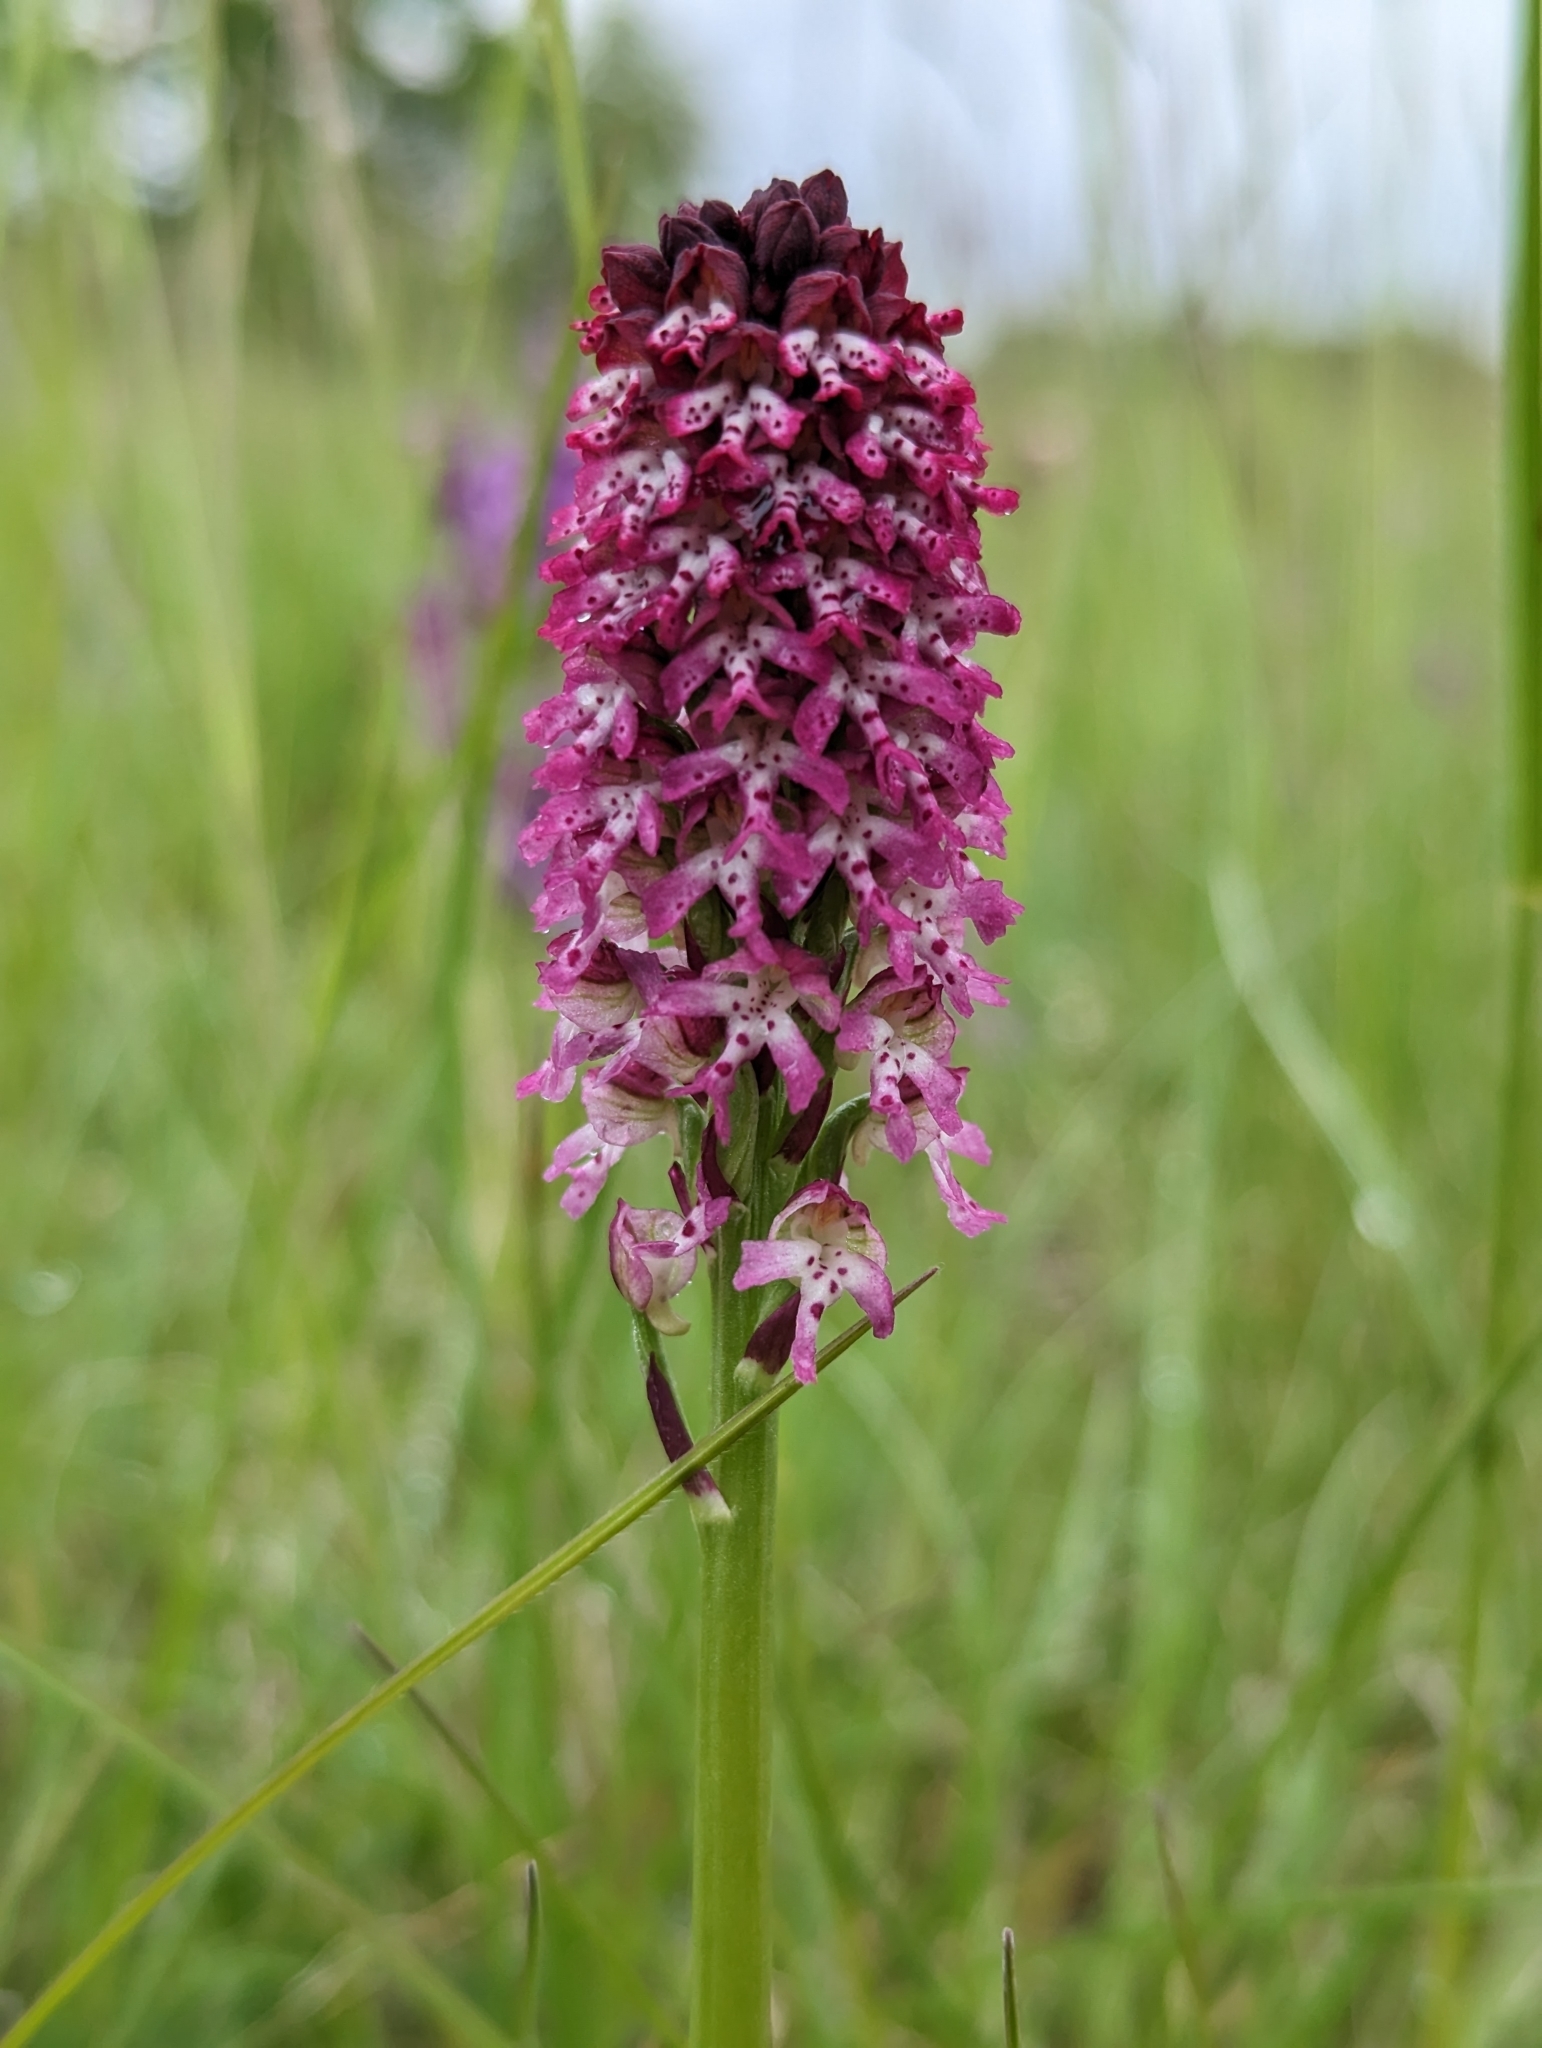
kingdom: Plantae
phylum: Tracheophyta
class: Liliopsida
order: Asparagales
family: Orchidaceae
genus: Neotinea
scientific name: Neotinea ustulata
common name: Burnt orchid
